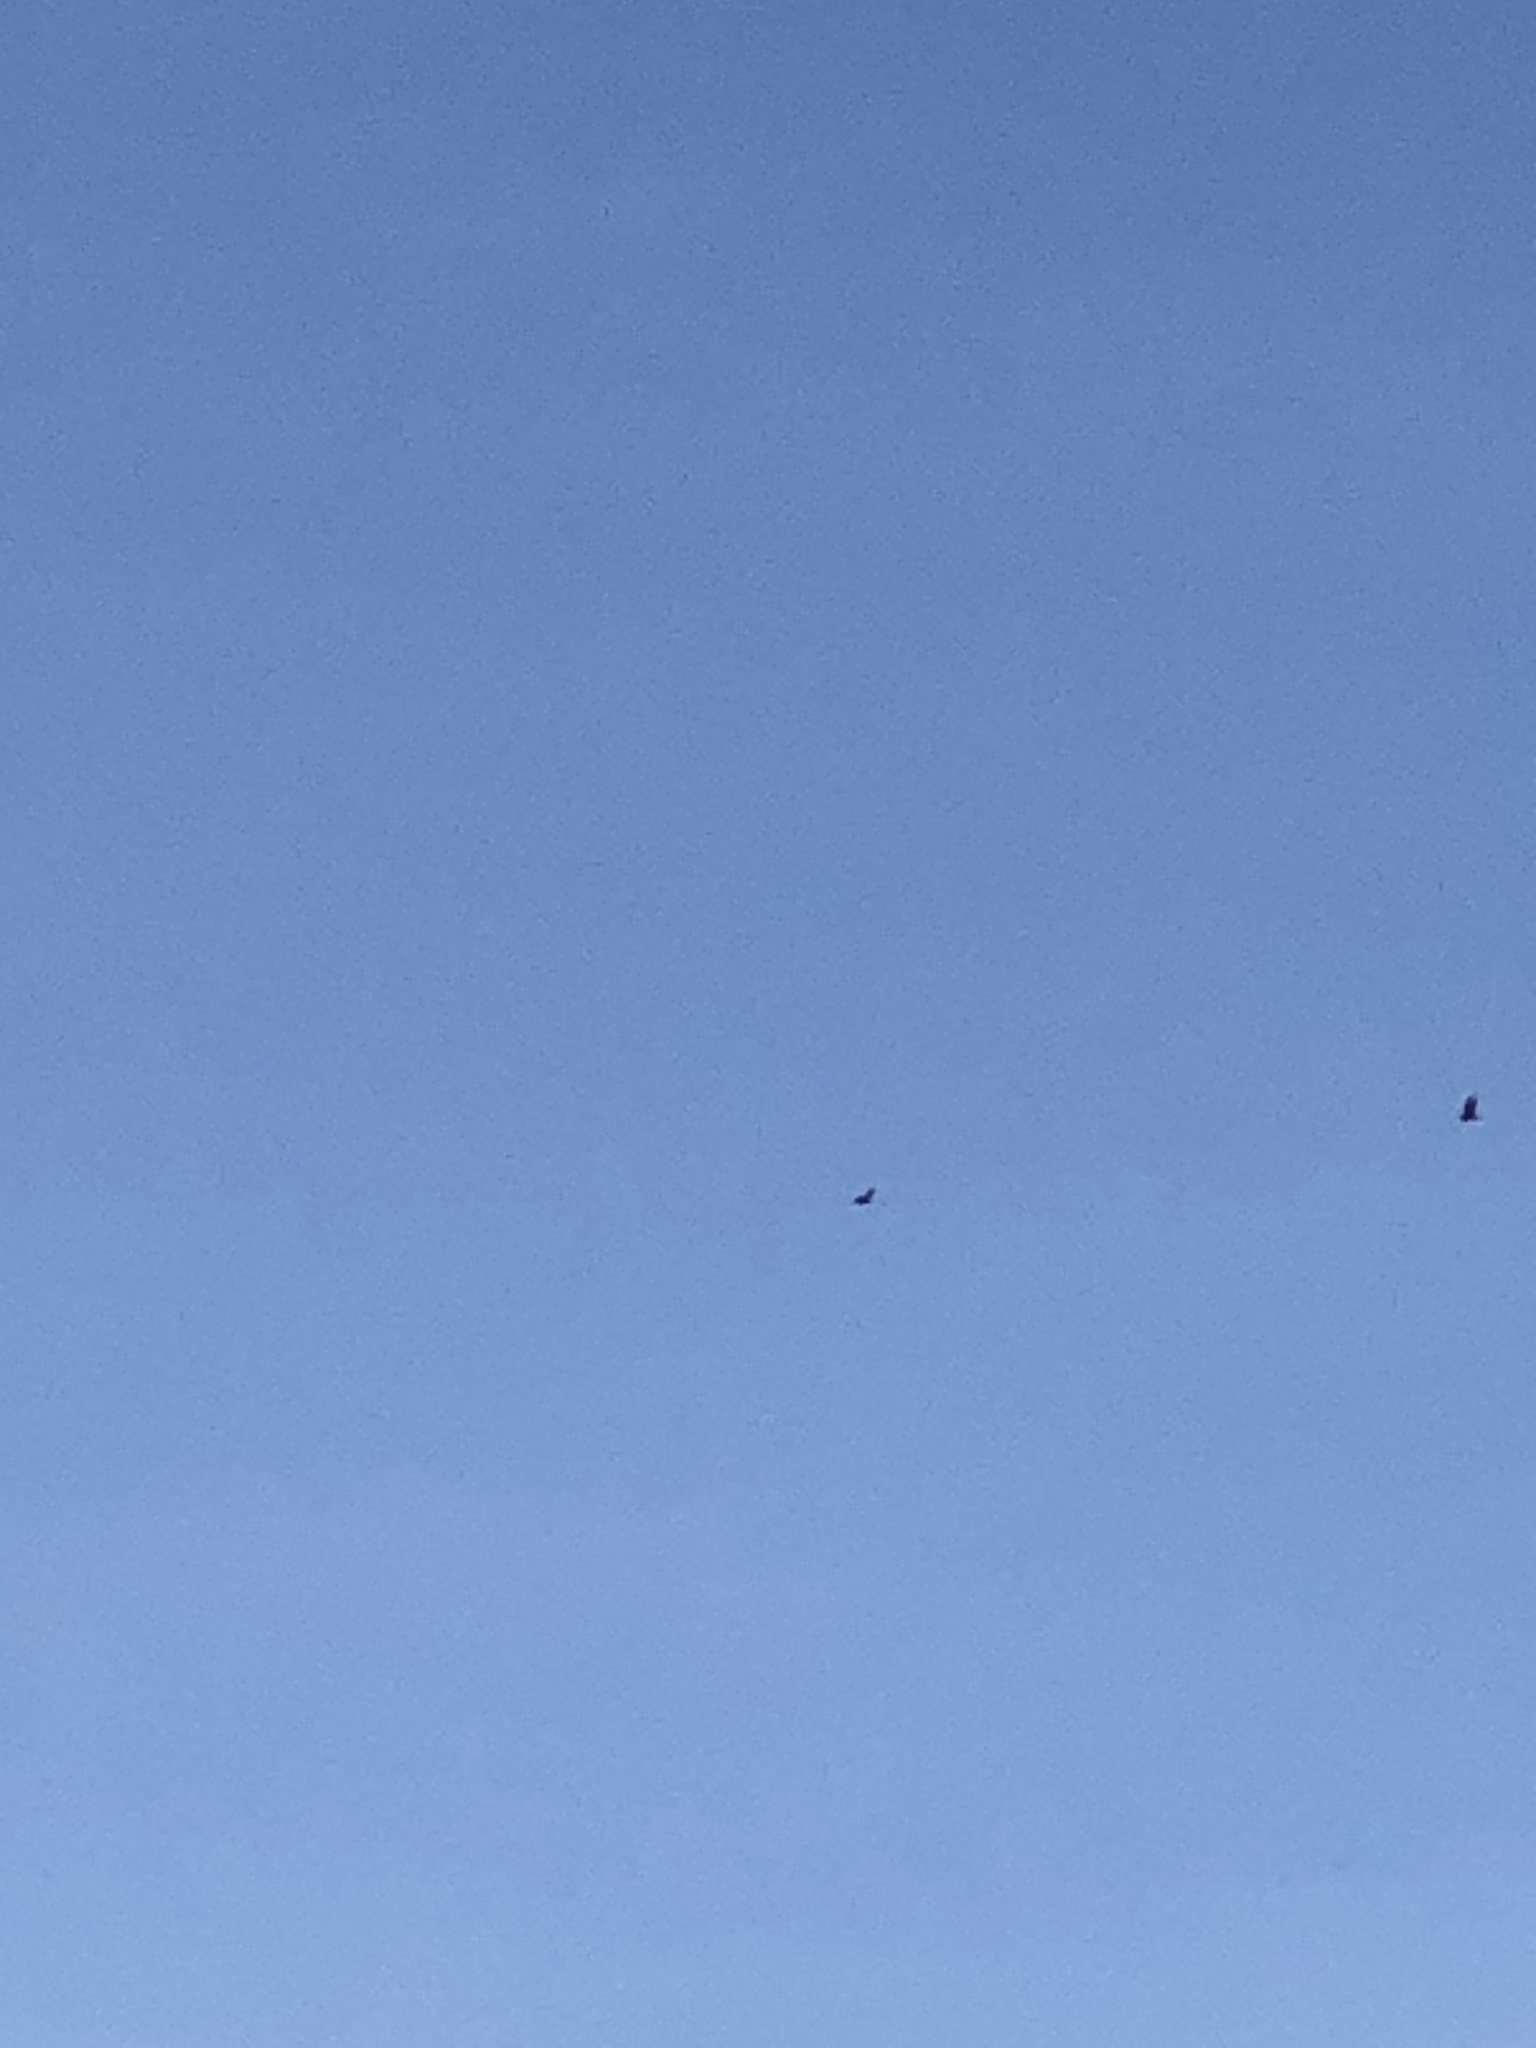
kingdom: Animalia
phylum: Chordata
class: Aves
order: Accipitriformes
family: Cathartidae
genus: Cathartes
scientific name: Cathartes aura
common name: Turkey vulture
